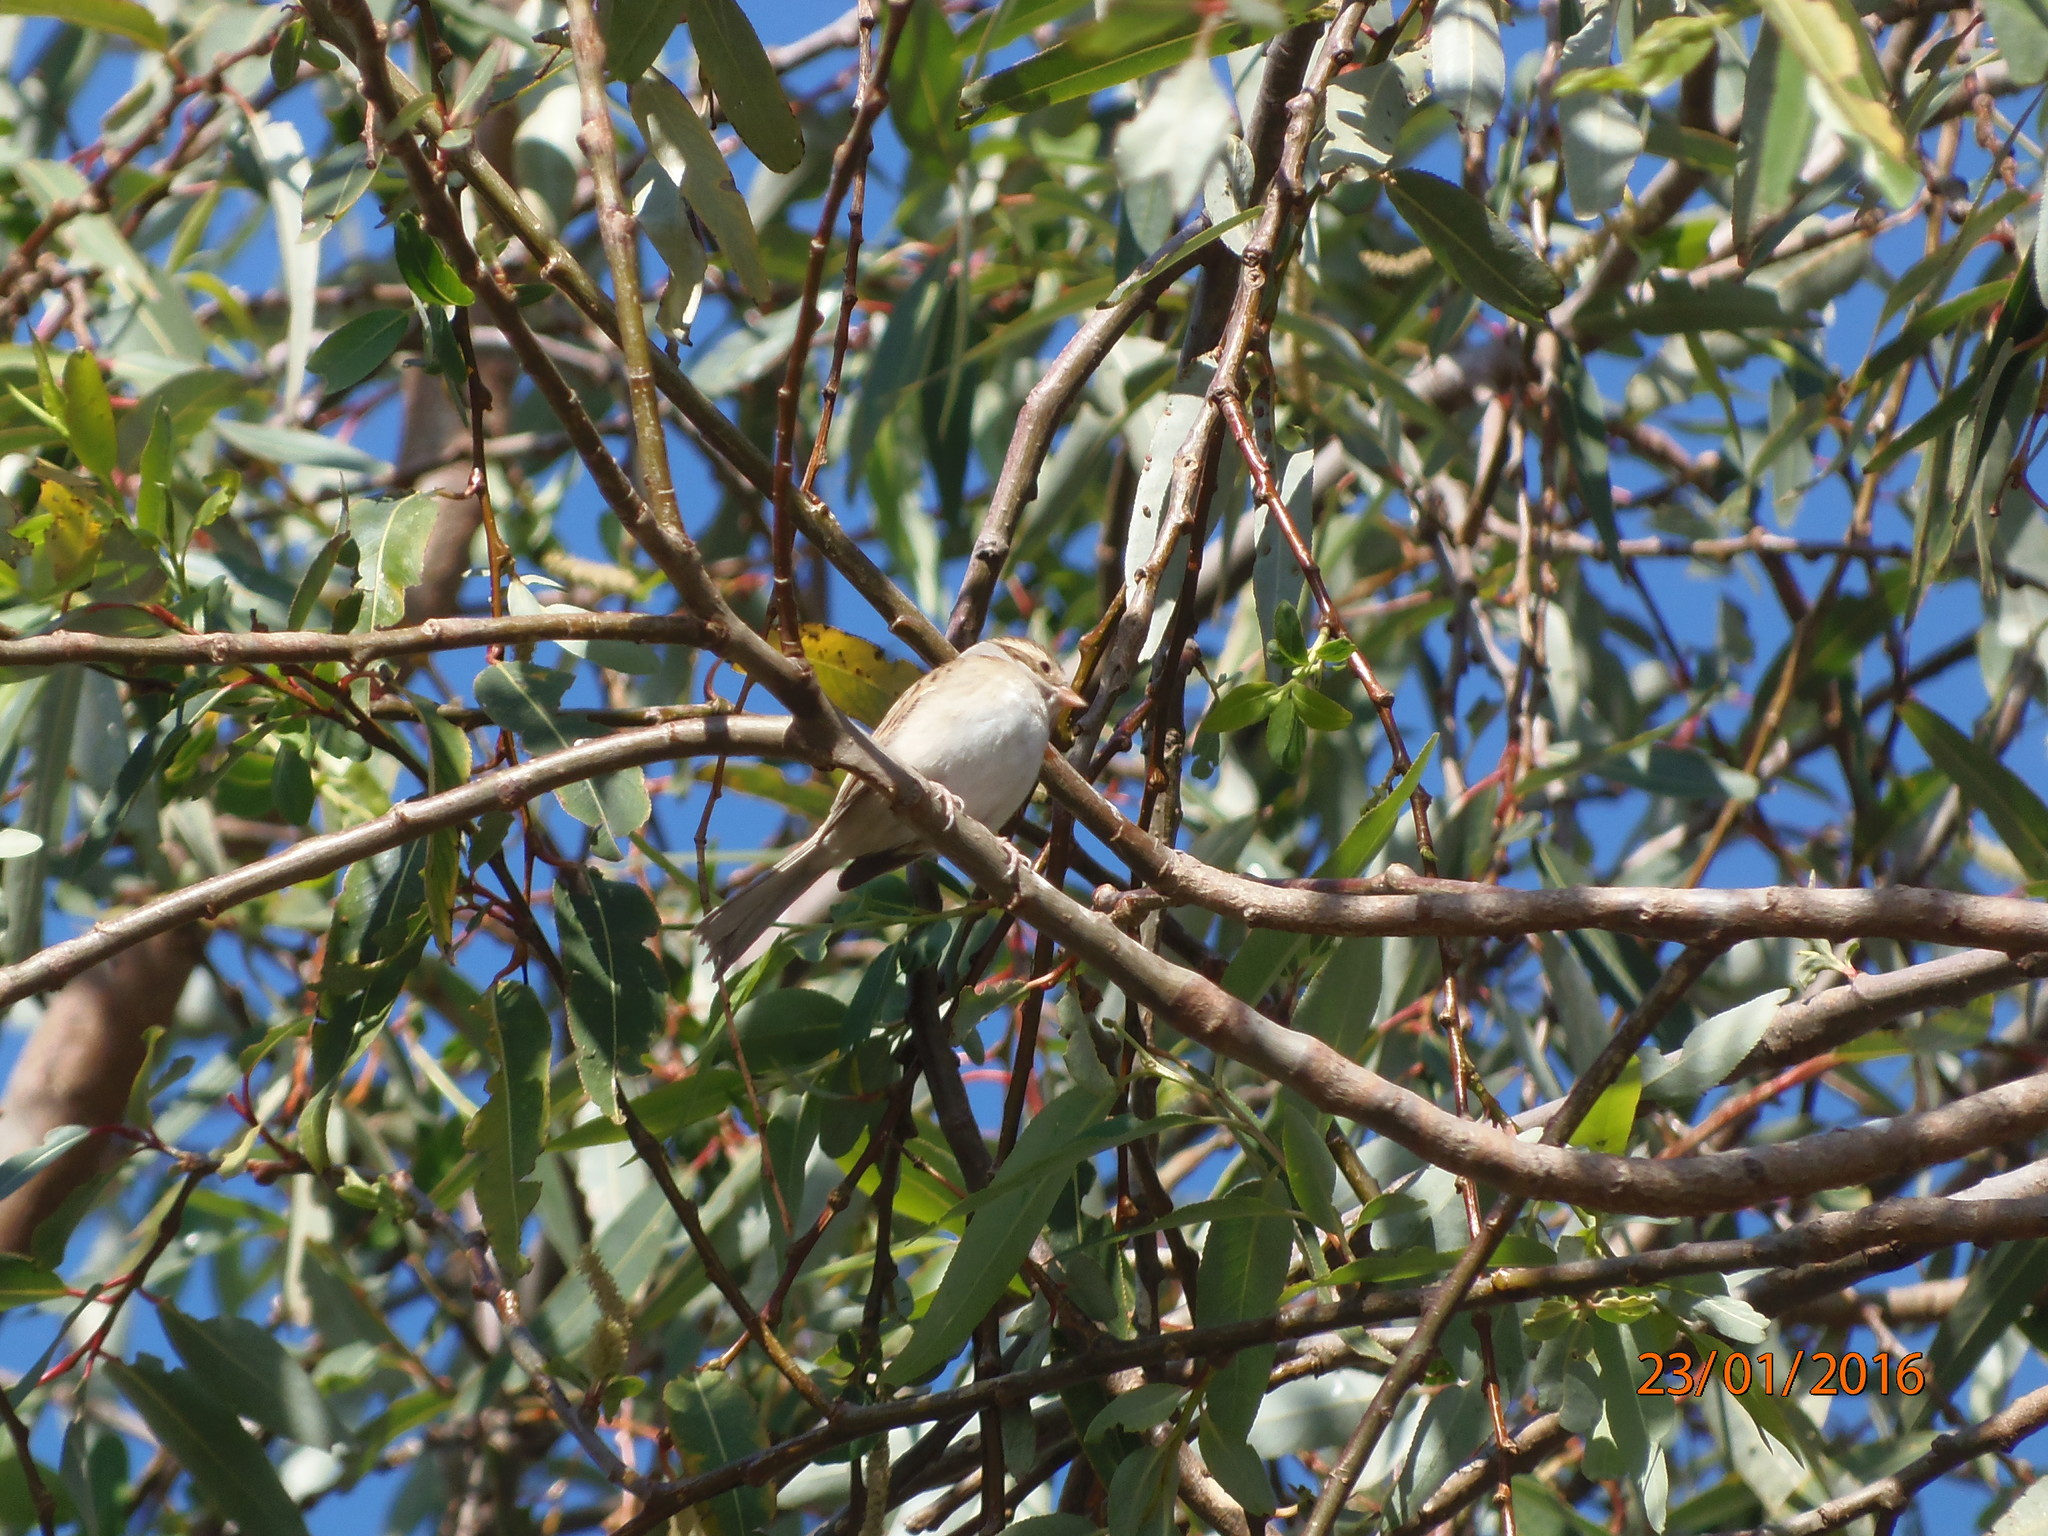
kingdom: Animalia
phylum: Chordata
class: Aves
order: Passeriformes
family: Passerellidae
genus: Spizella
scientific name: Spizella pallida
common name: Clay-colored sparrow
